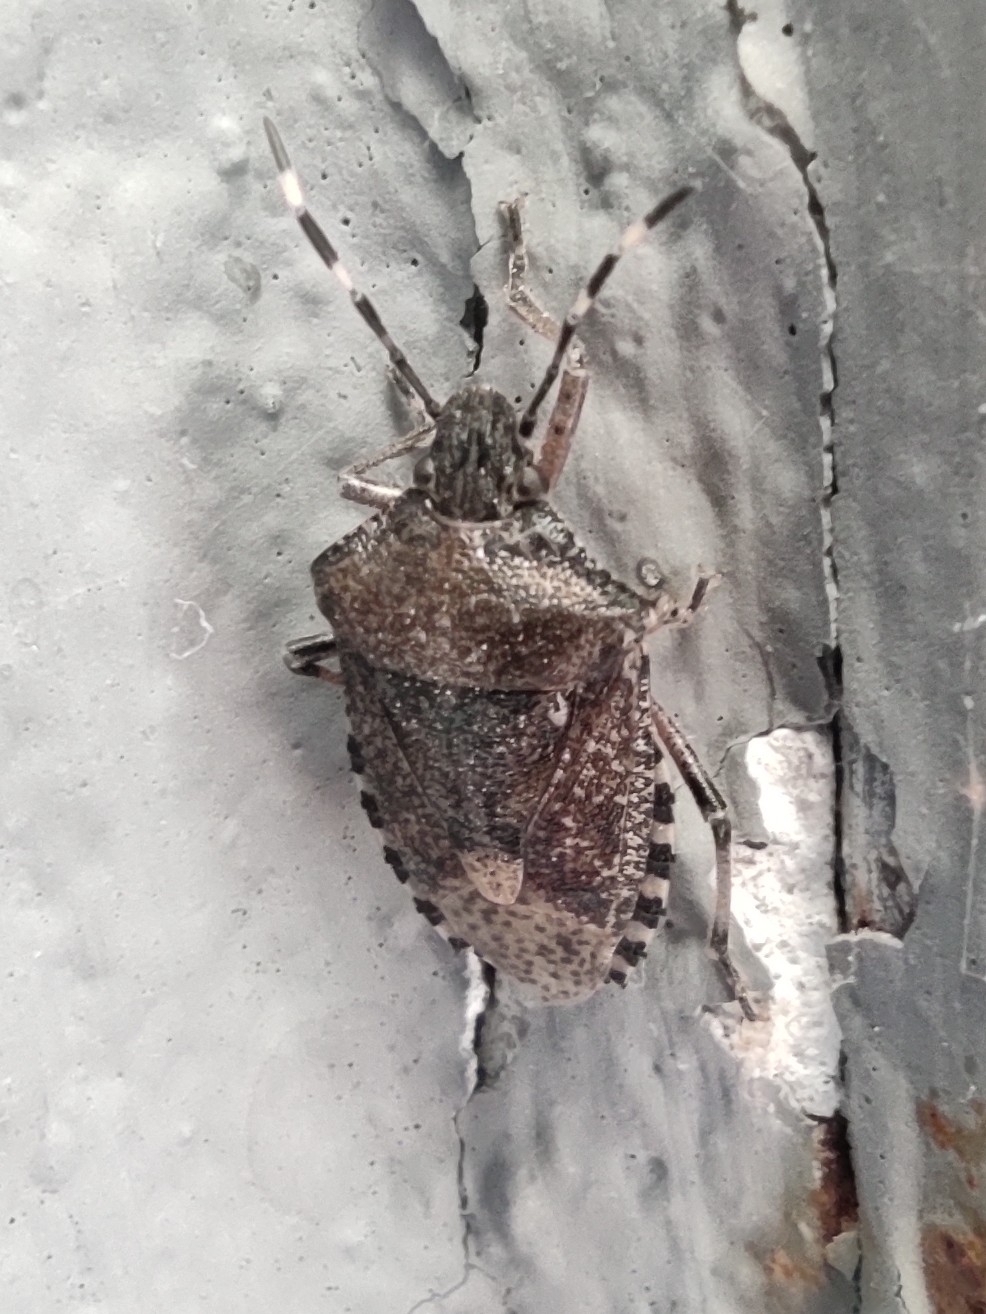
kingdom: Animalia
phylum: Arthropoda
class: Insecta
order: Hemiptera
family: Pentatomidae
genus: Rhaphigaster
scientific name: Rhaphigaster nebulosa
